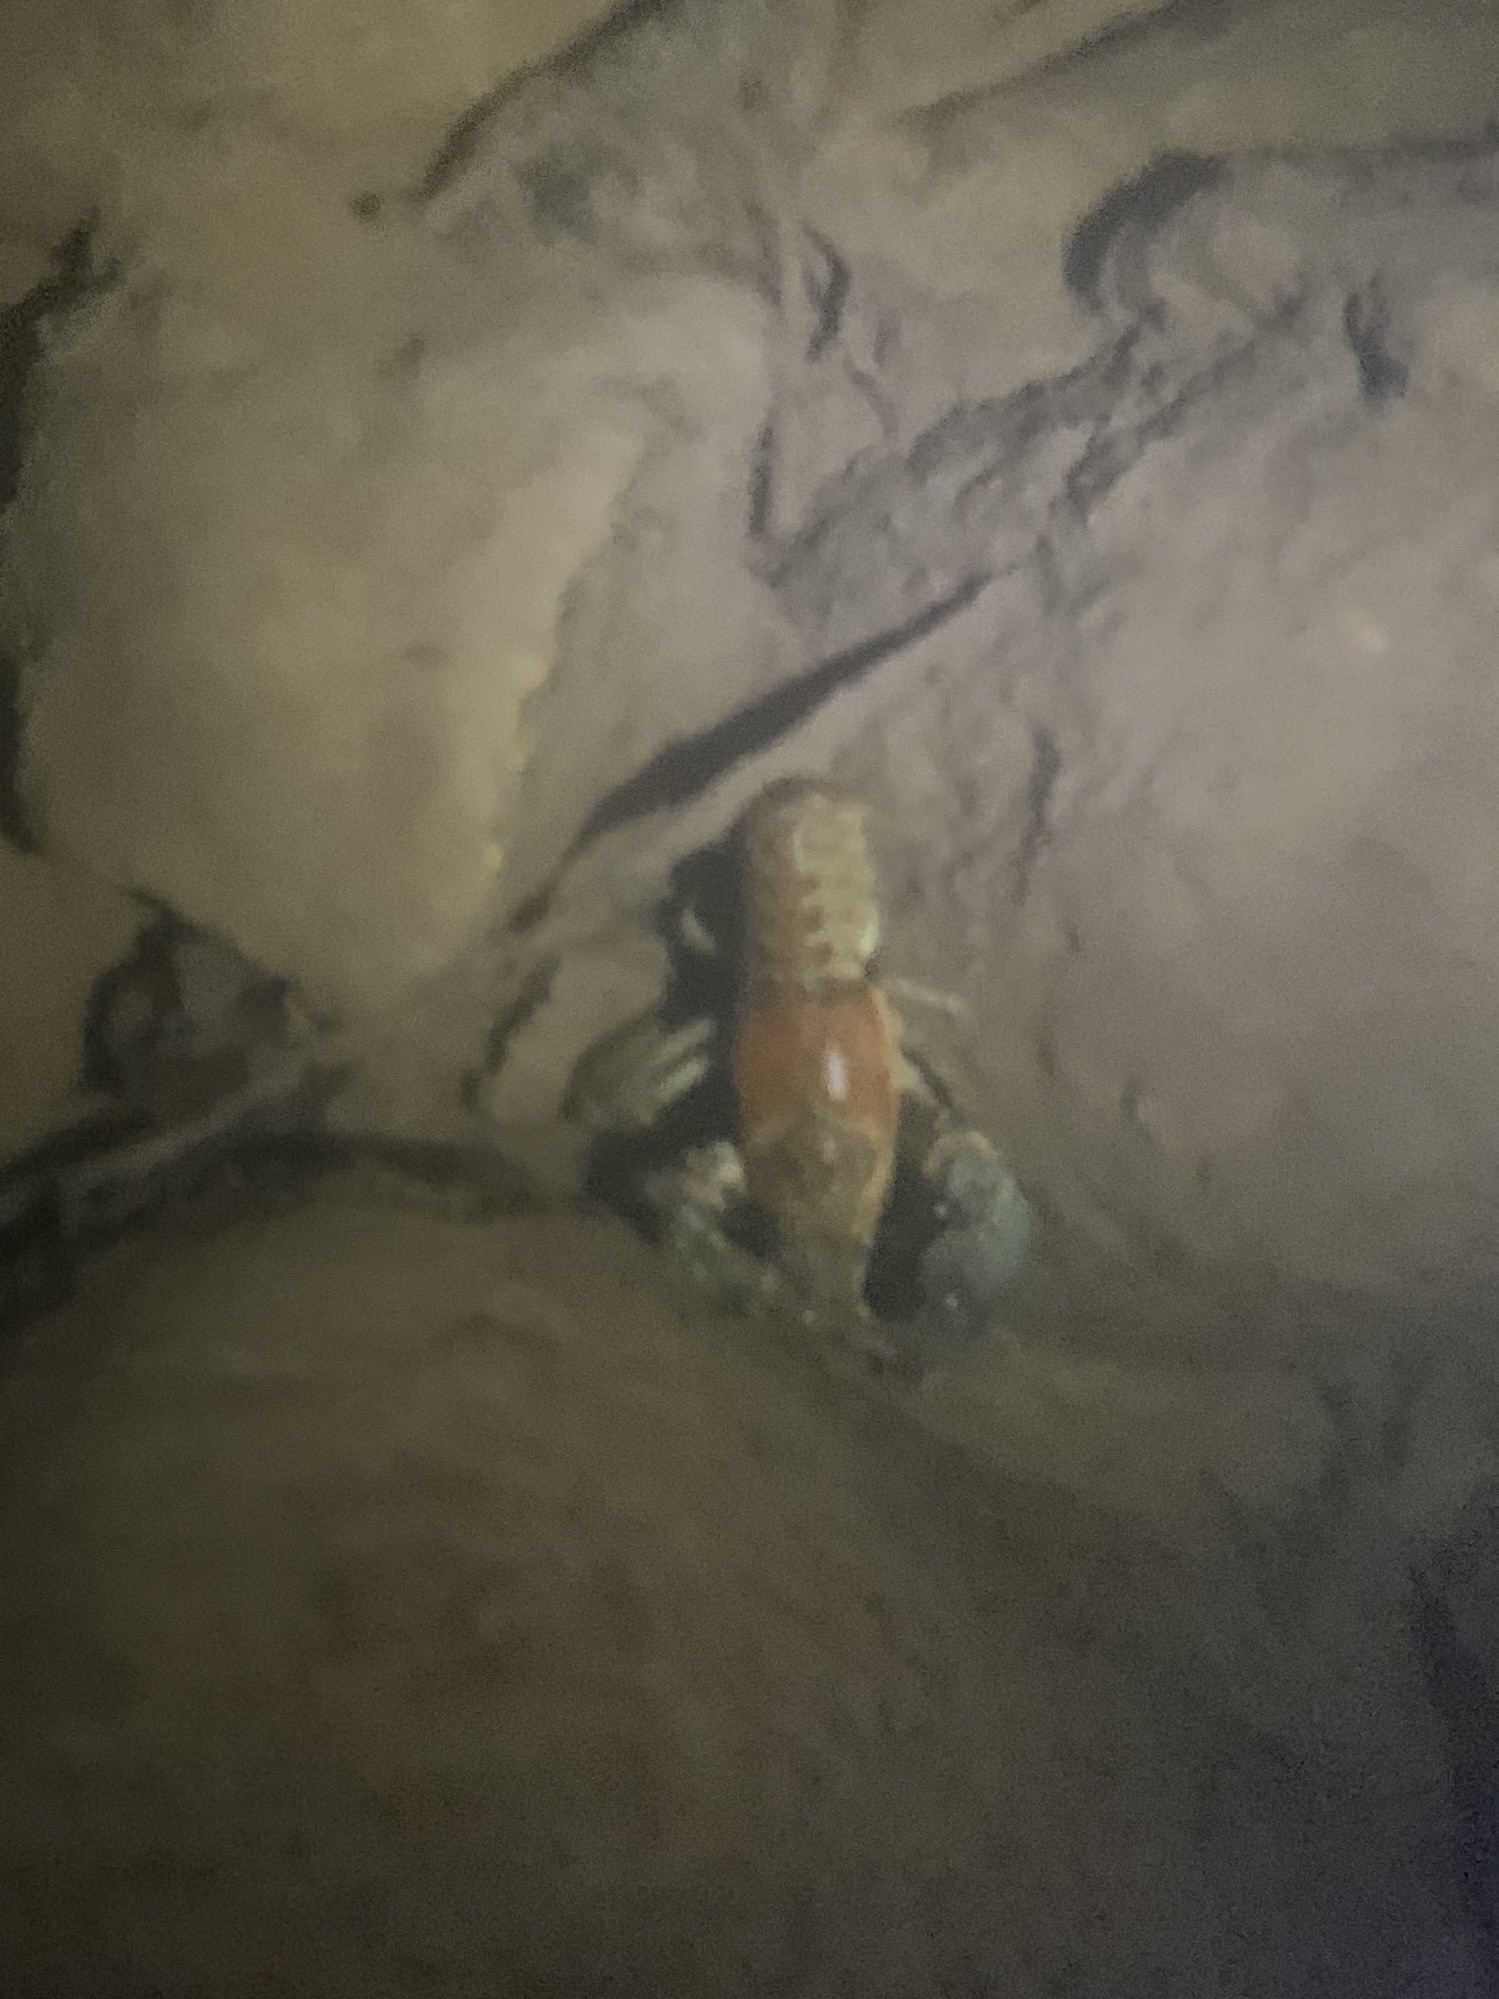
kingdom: Animalia
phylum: Arthropoda
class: Malacostraca
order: Decapoda
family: Cambaridae
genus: Faxonius
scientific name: Faxonius virilis
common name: Virile crayfish
